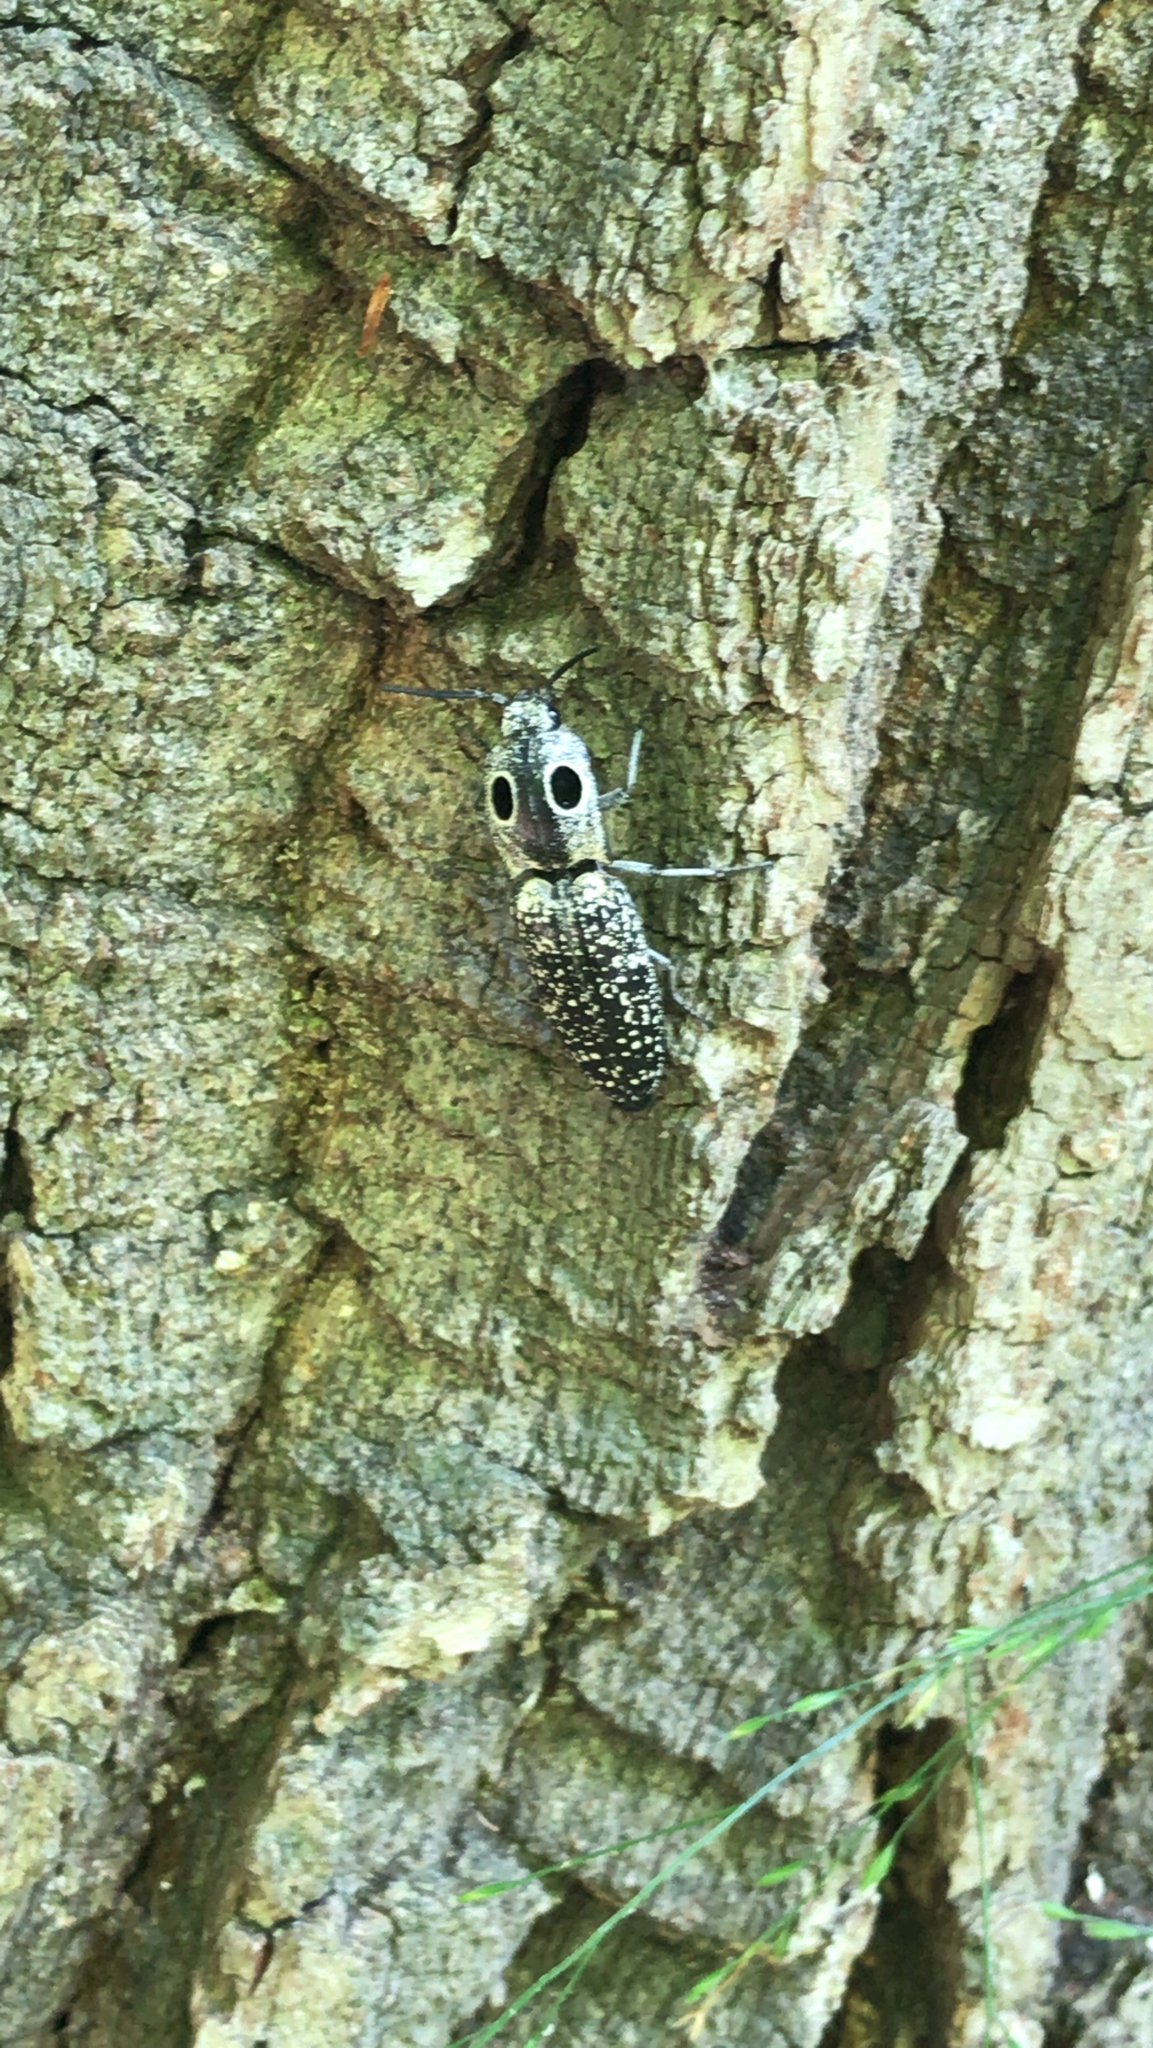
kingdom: Animalia
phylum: Arthropoda
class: Insecta
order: Coleoptera
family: Elateridae
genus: Alaus
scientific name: Alaus oculatus
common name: Eastern eyed click beetle
